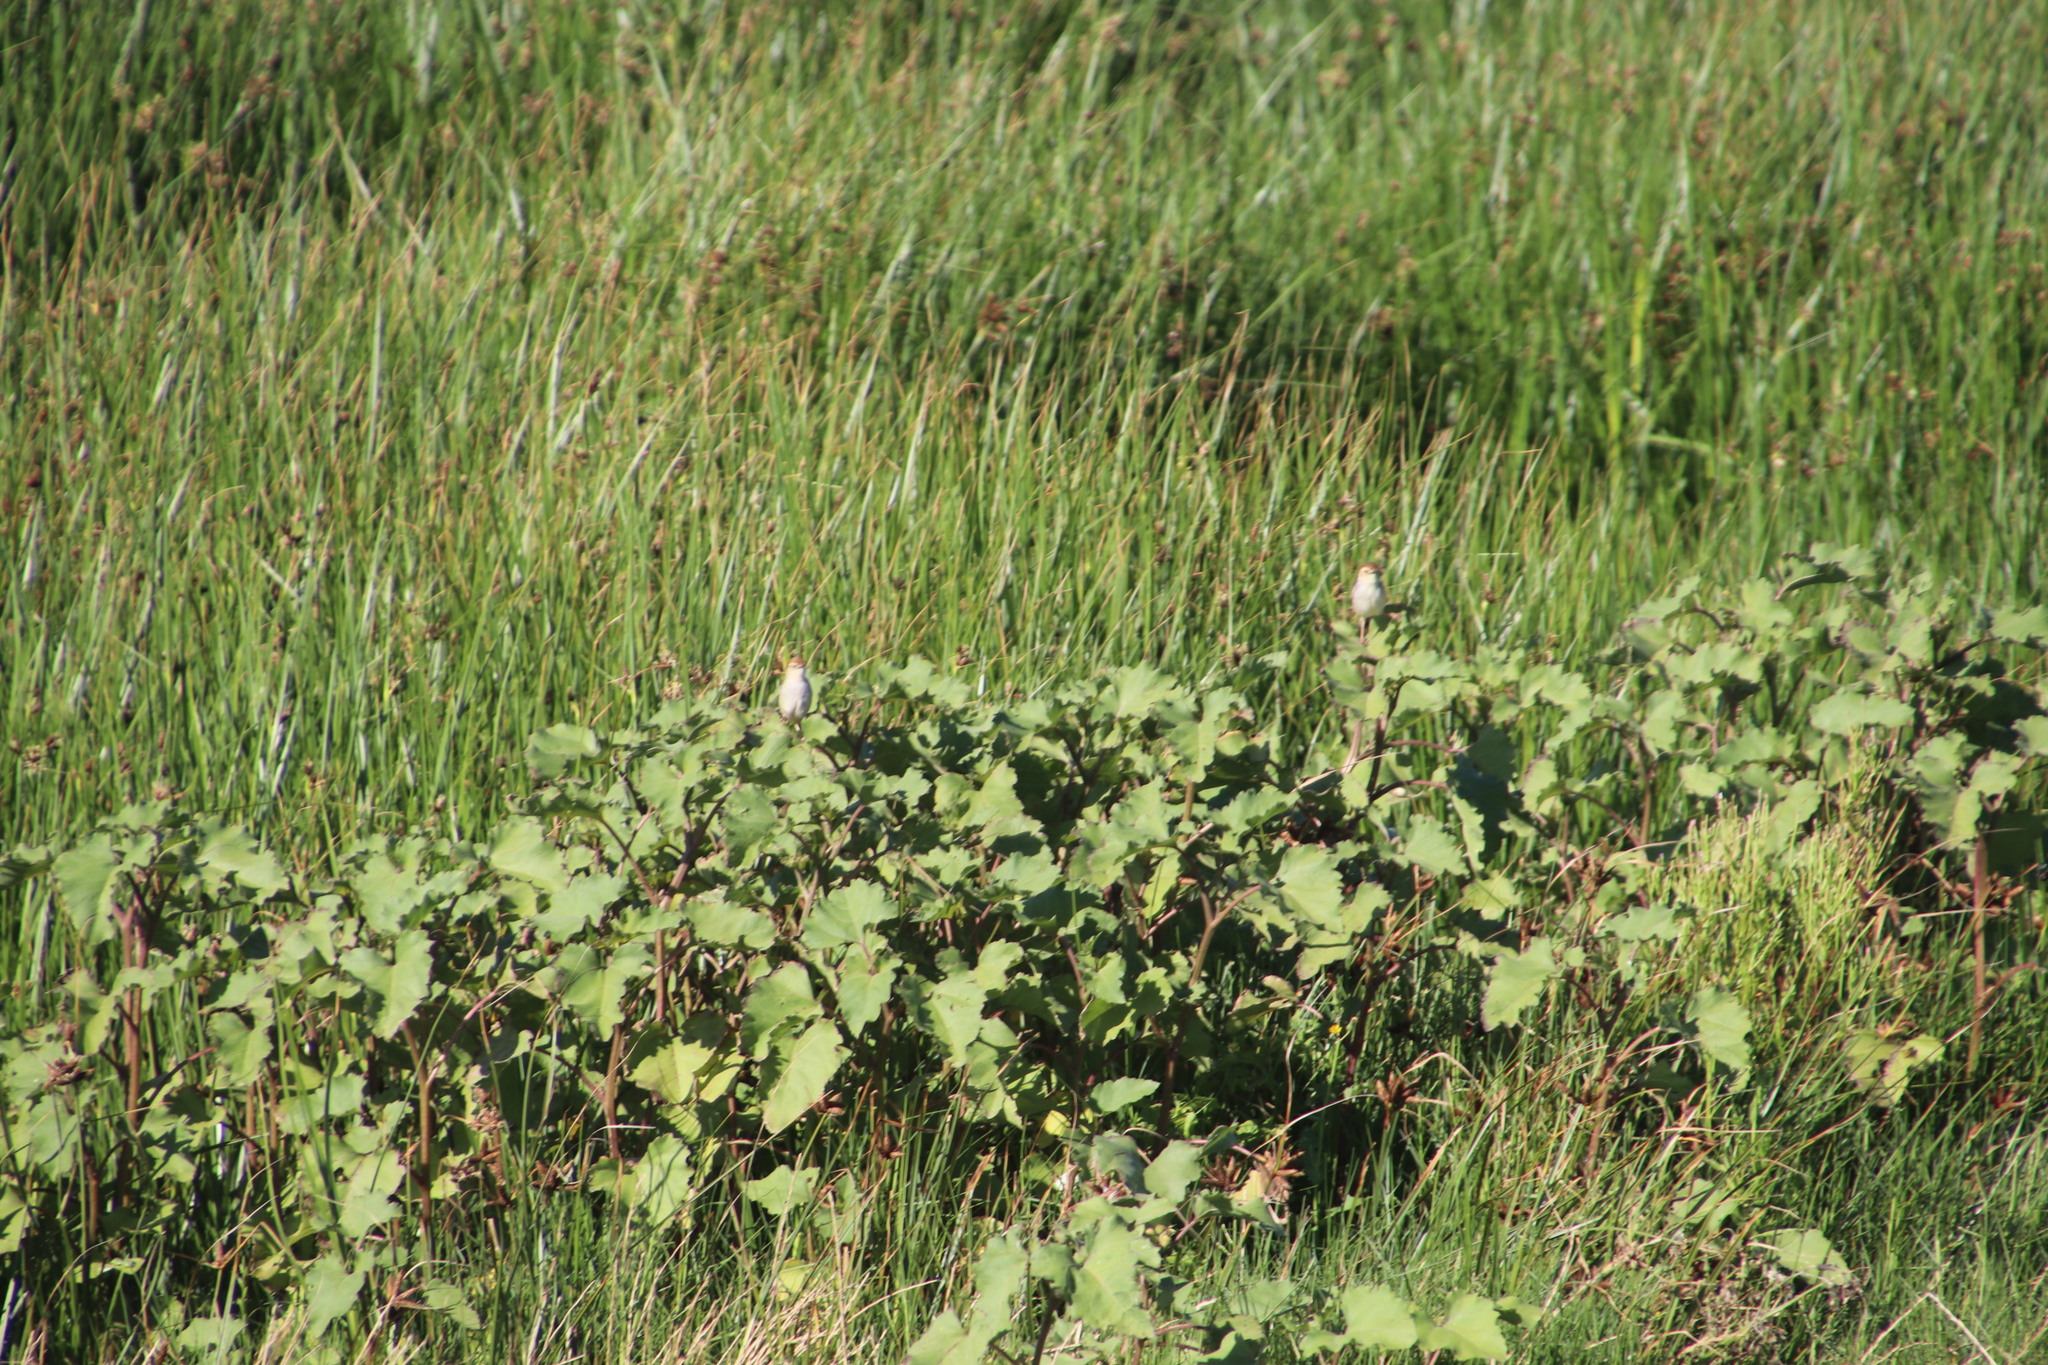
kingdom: Animalia
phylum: Chordata
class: Aves
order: Passeriformes
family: Cisticolidae
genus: Cisticola
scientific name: Cisticola tinniens
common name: Levaillant's cisticola
